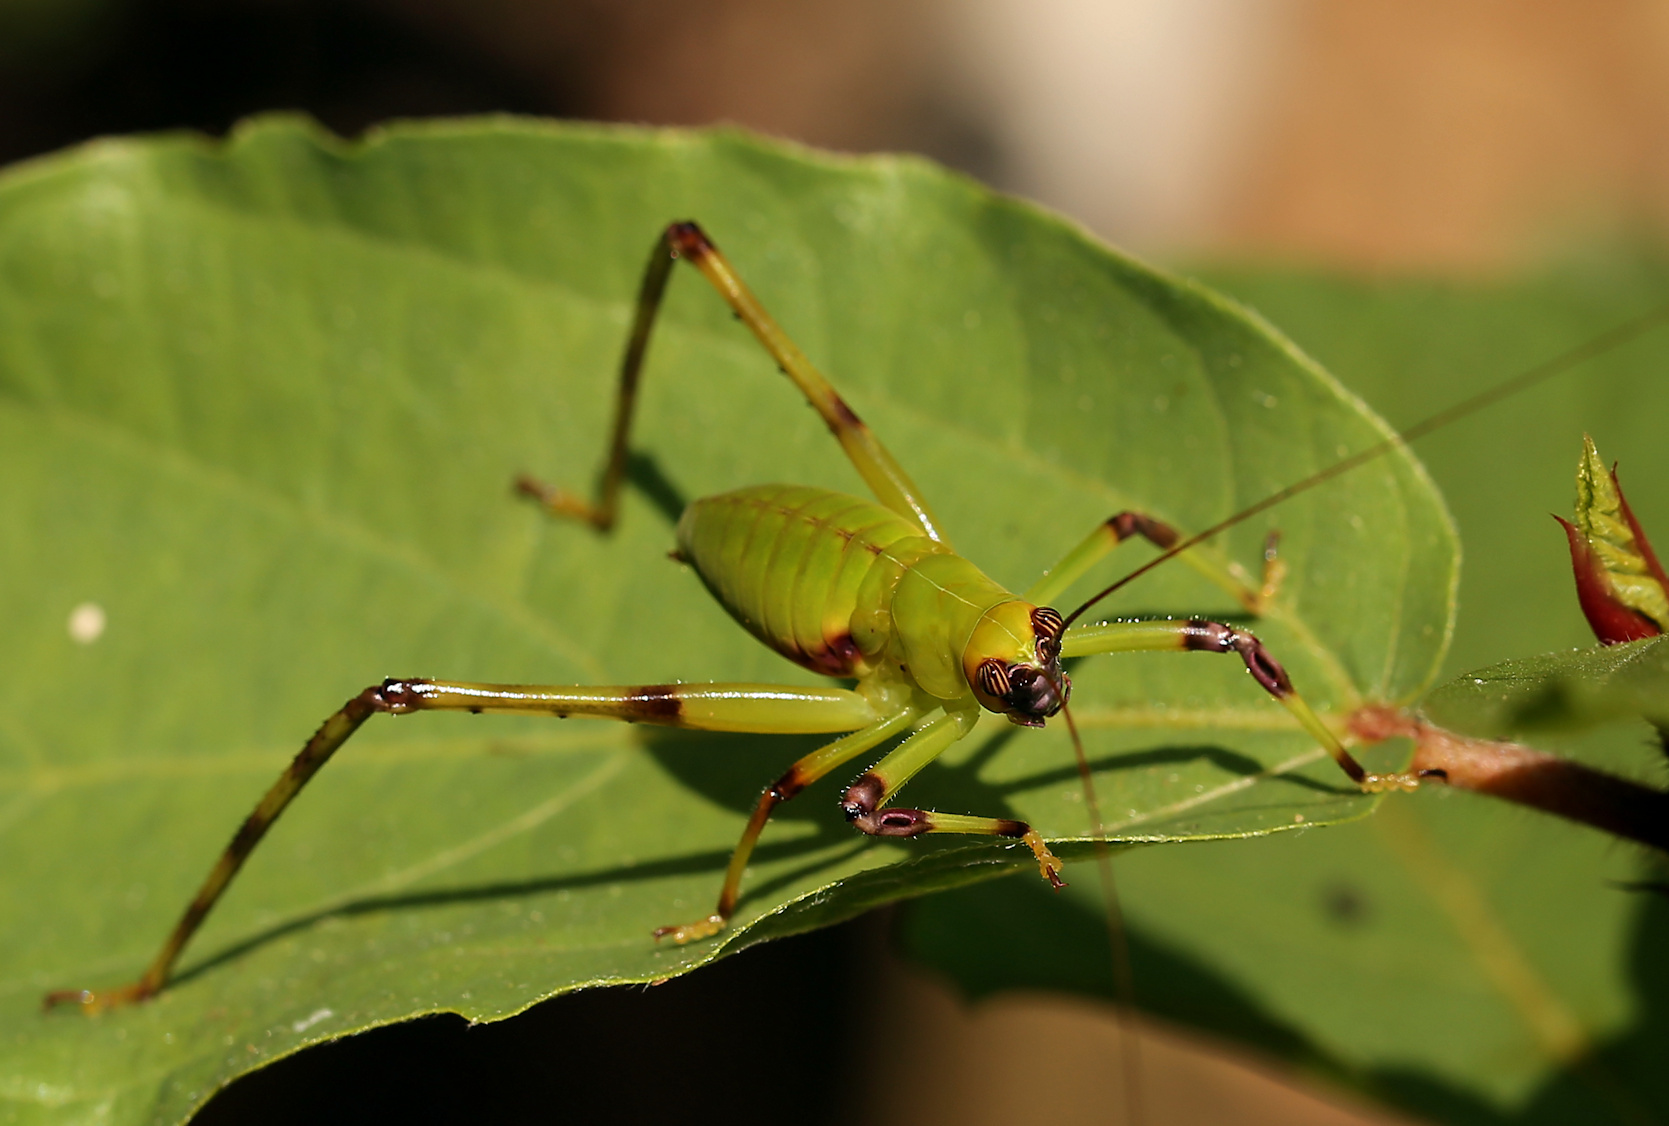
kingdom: Animalia
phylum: Arthropoda
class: Insecta
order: Orthoptera
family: Tettigoniidae
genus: Arantia
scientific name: Arantia fasciata
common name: Giant leaf katydid
